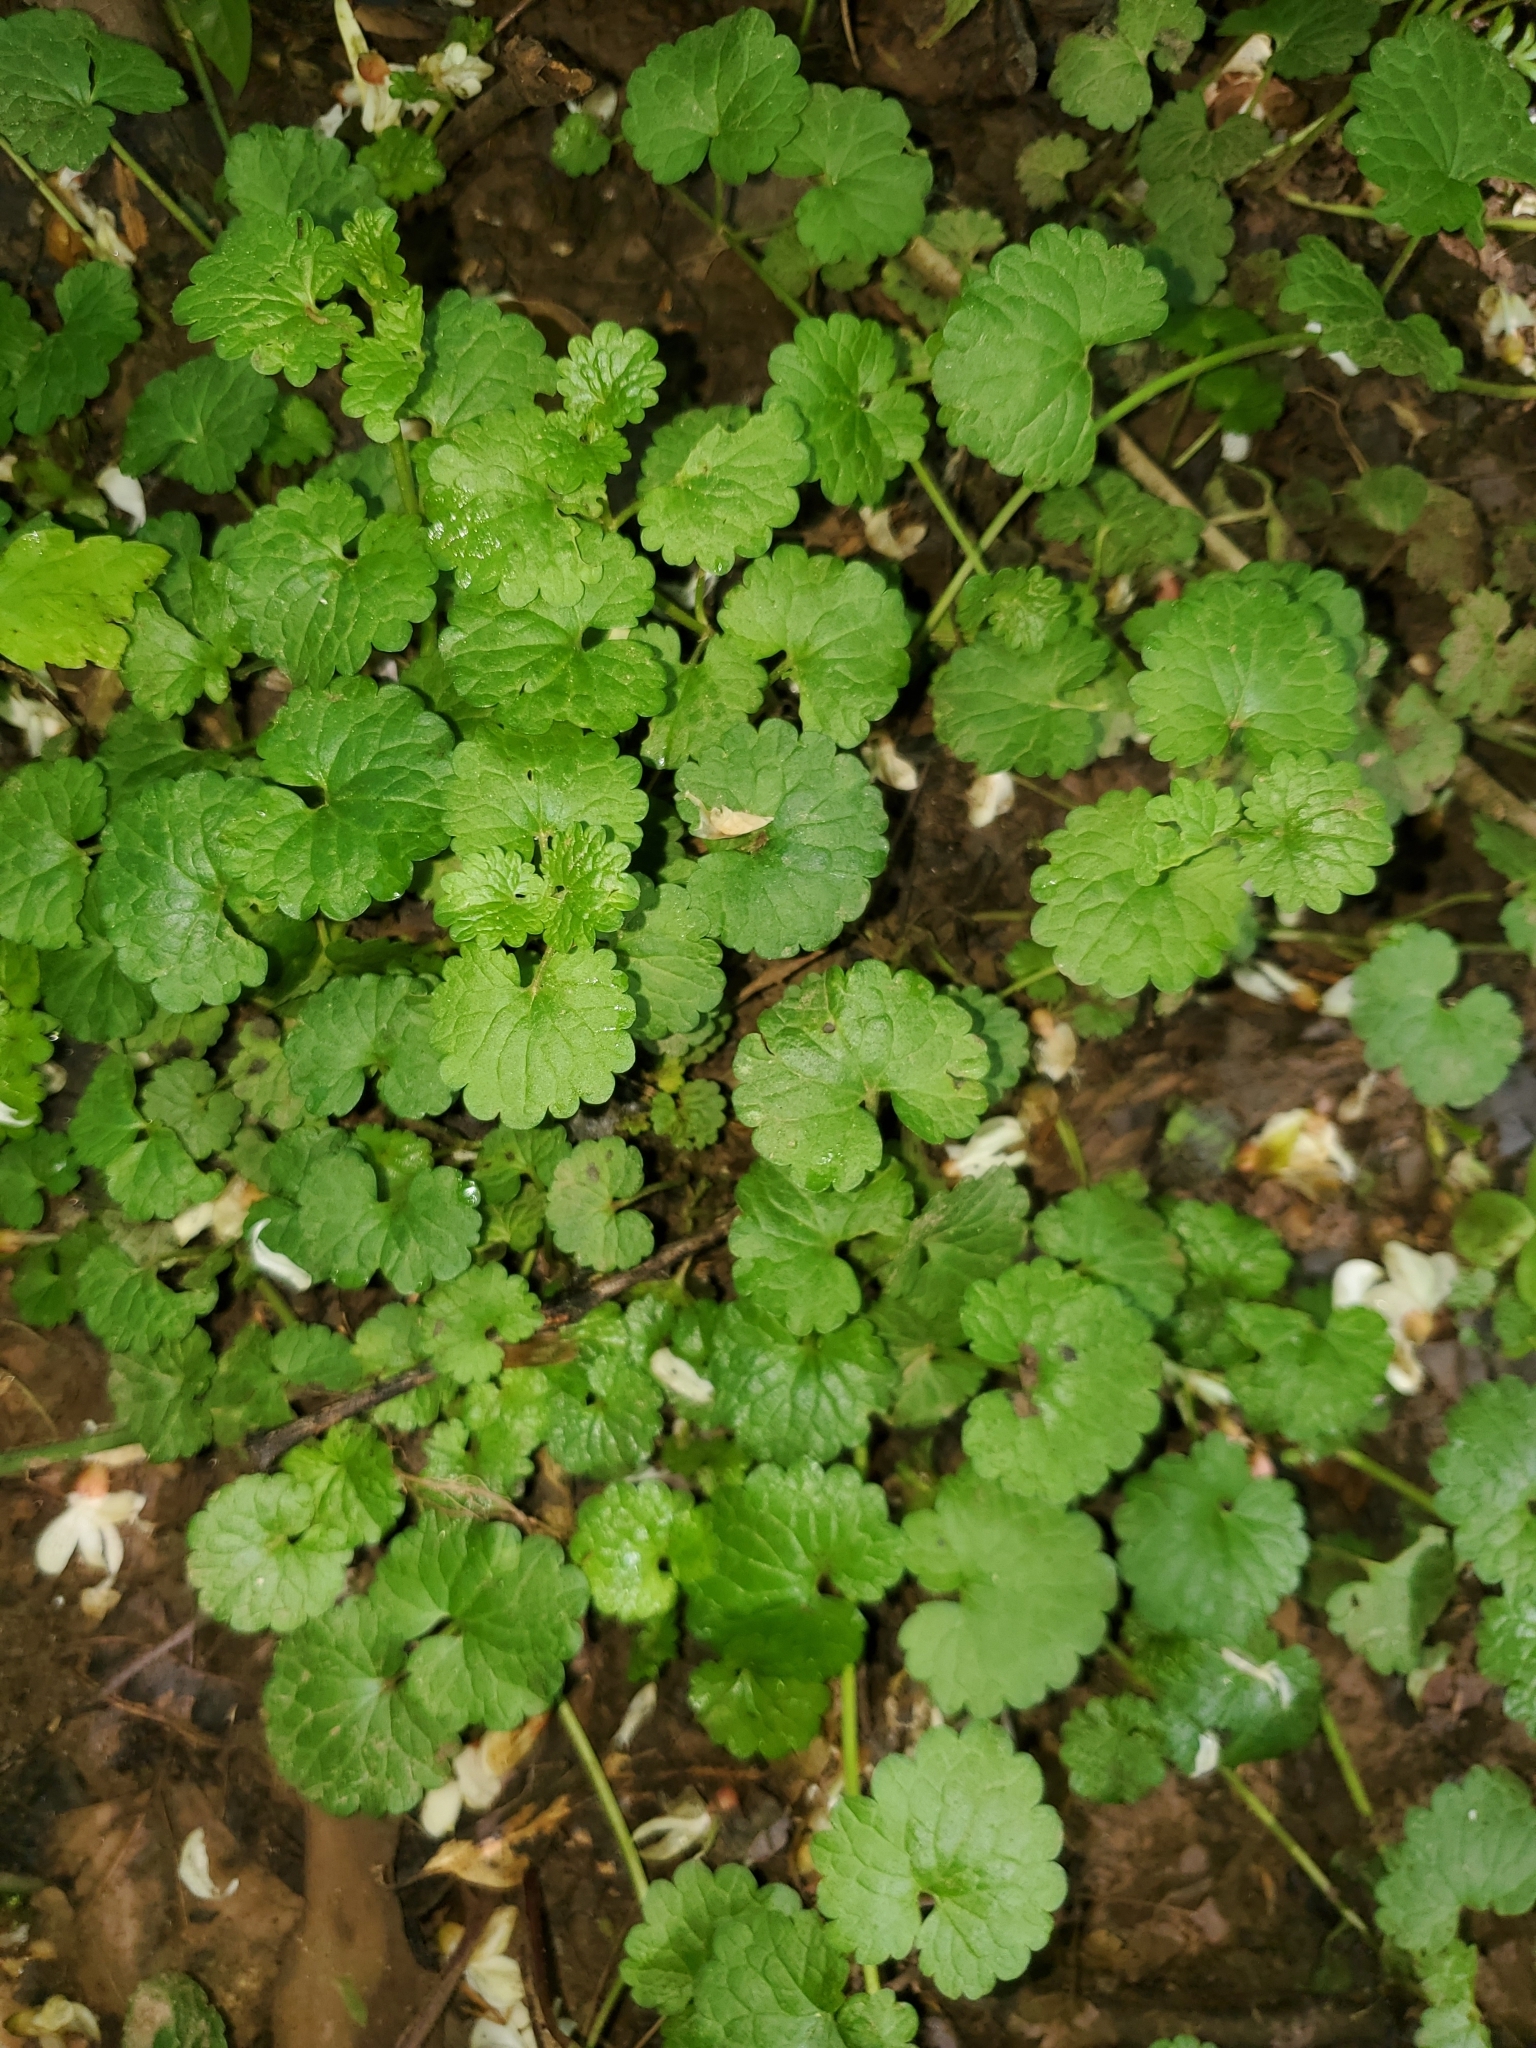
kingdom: Plantae
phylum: Tracheophyta
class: Magnoliopsida
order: Lamiales
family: Lamiaceae
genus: Glechoma
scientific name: Glechoma hederacea
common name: Ground ivy
